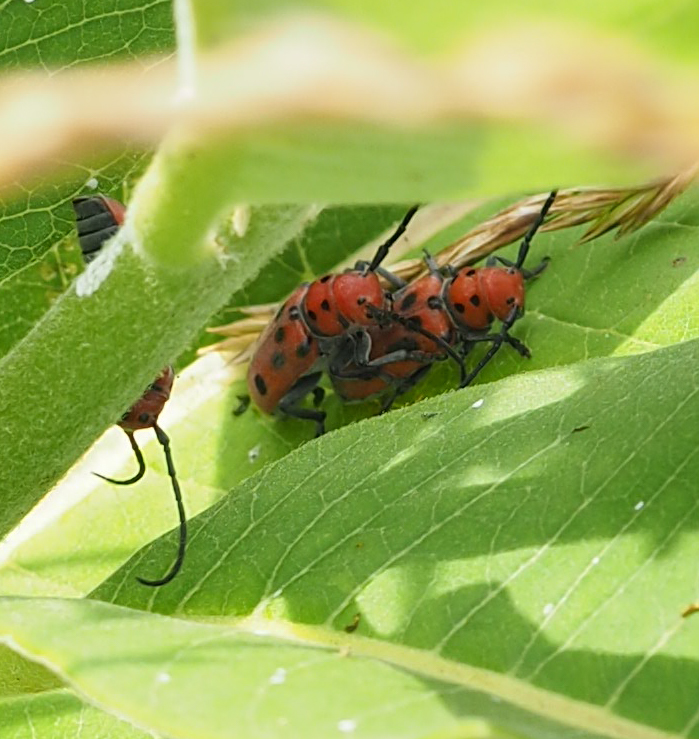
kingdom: Animalia
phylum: Arthropoda
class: Insecta
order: Coleoptera
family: Cerambycidae
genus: Tetraopes
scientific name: Tetraopes tetrophthalmus
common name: Red milkweed beetle
